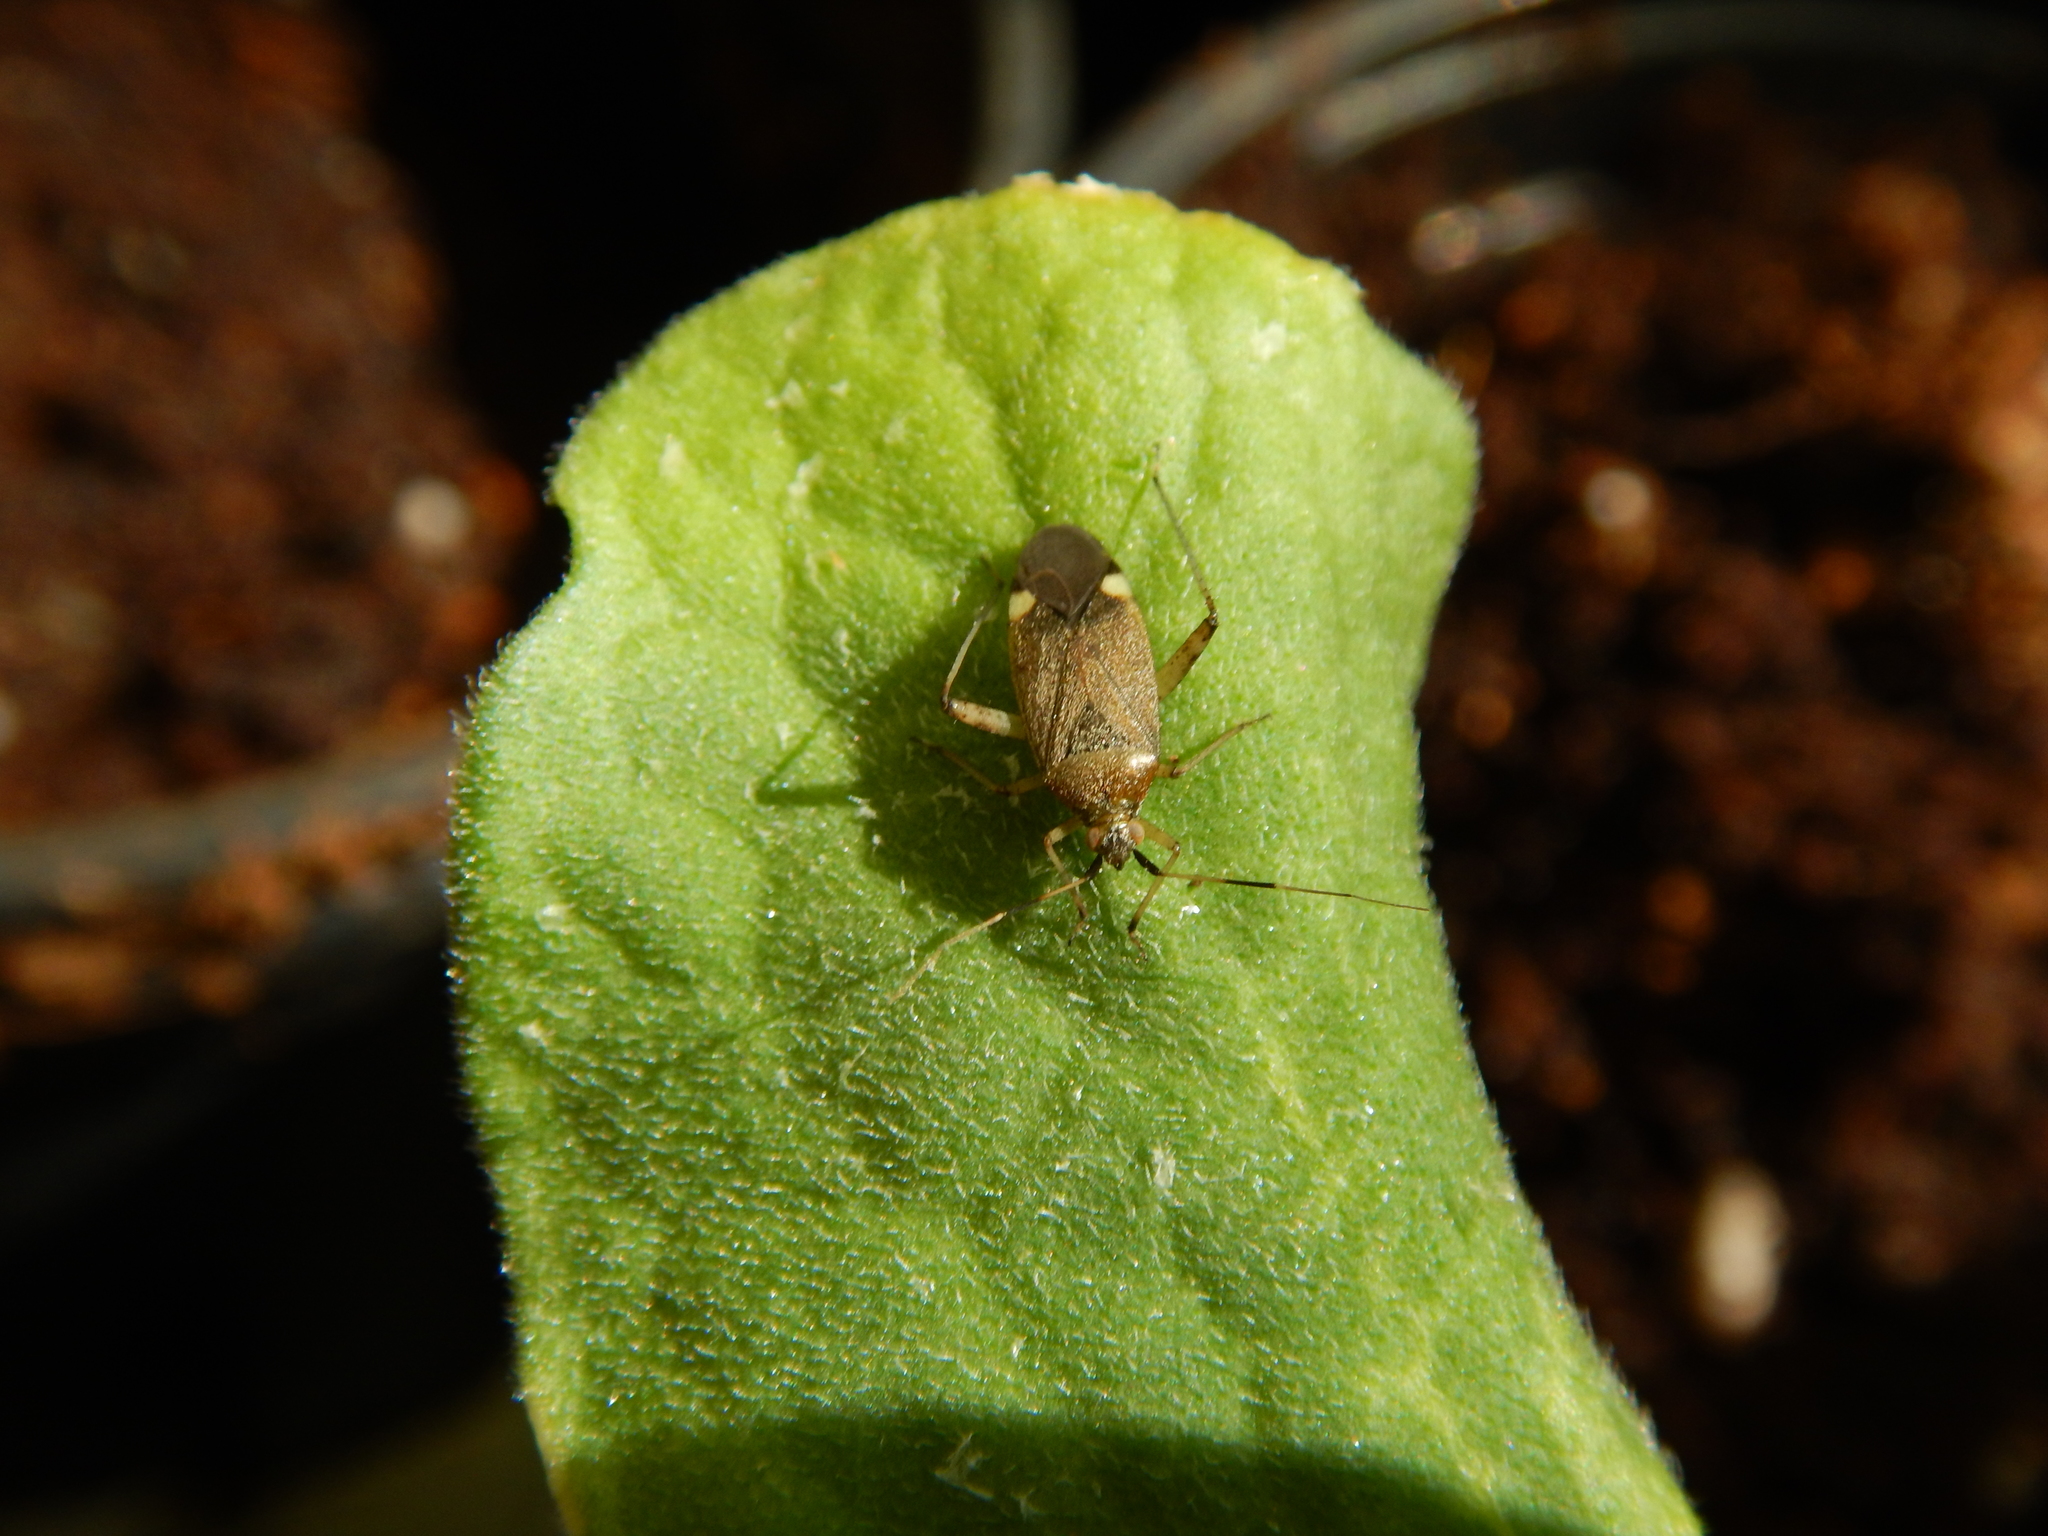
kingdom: Animalia
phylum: Arthropoda
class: Insecta
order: Hemiptera
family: Miridae
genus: Closterotomus
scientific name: Closterotomus annulus
